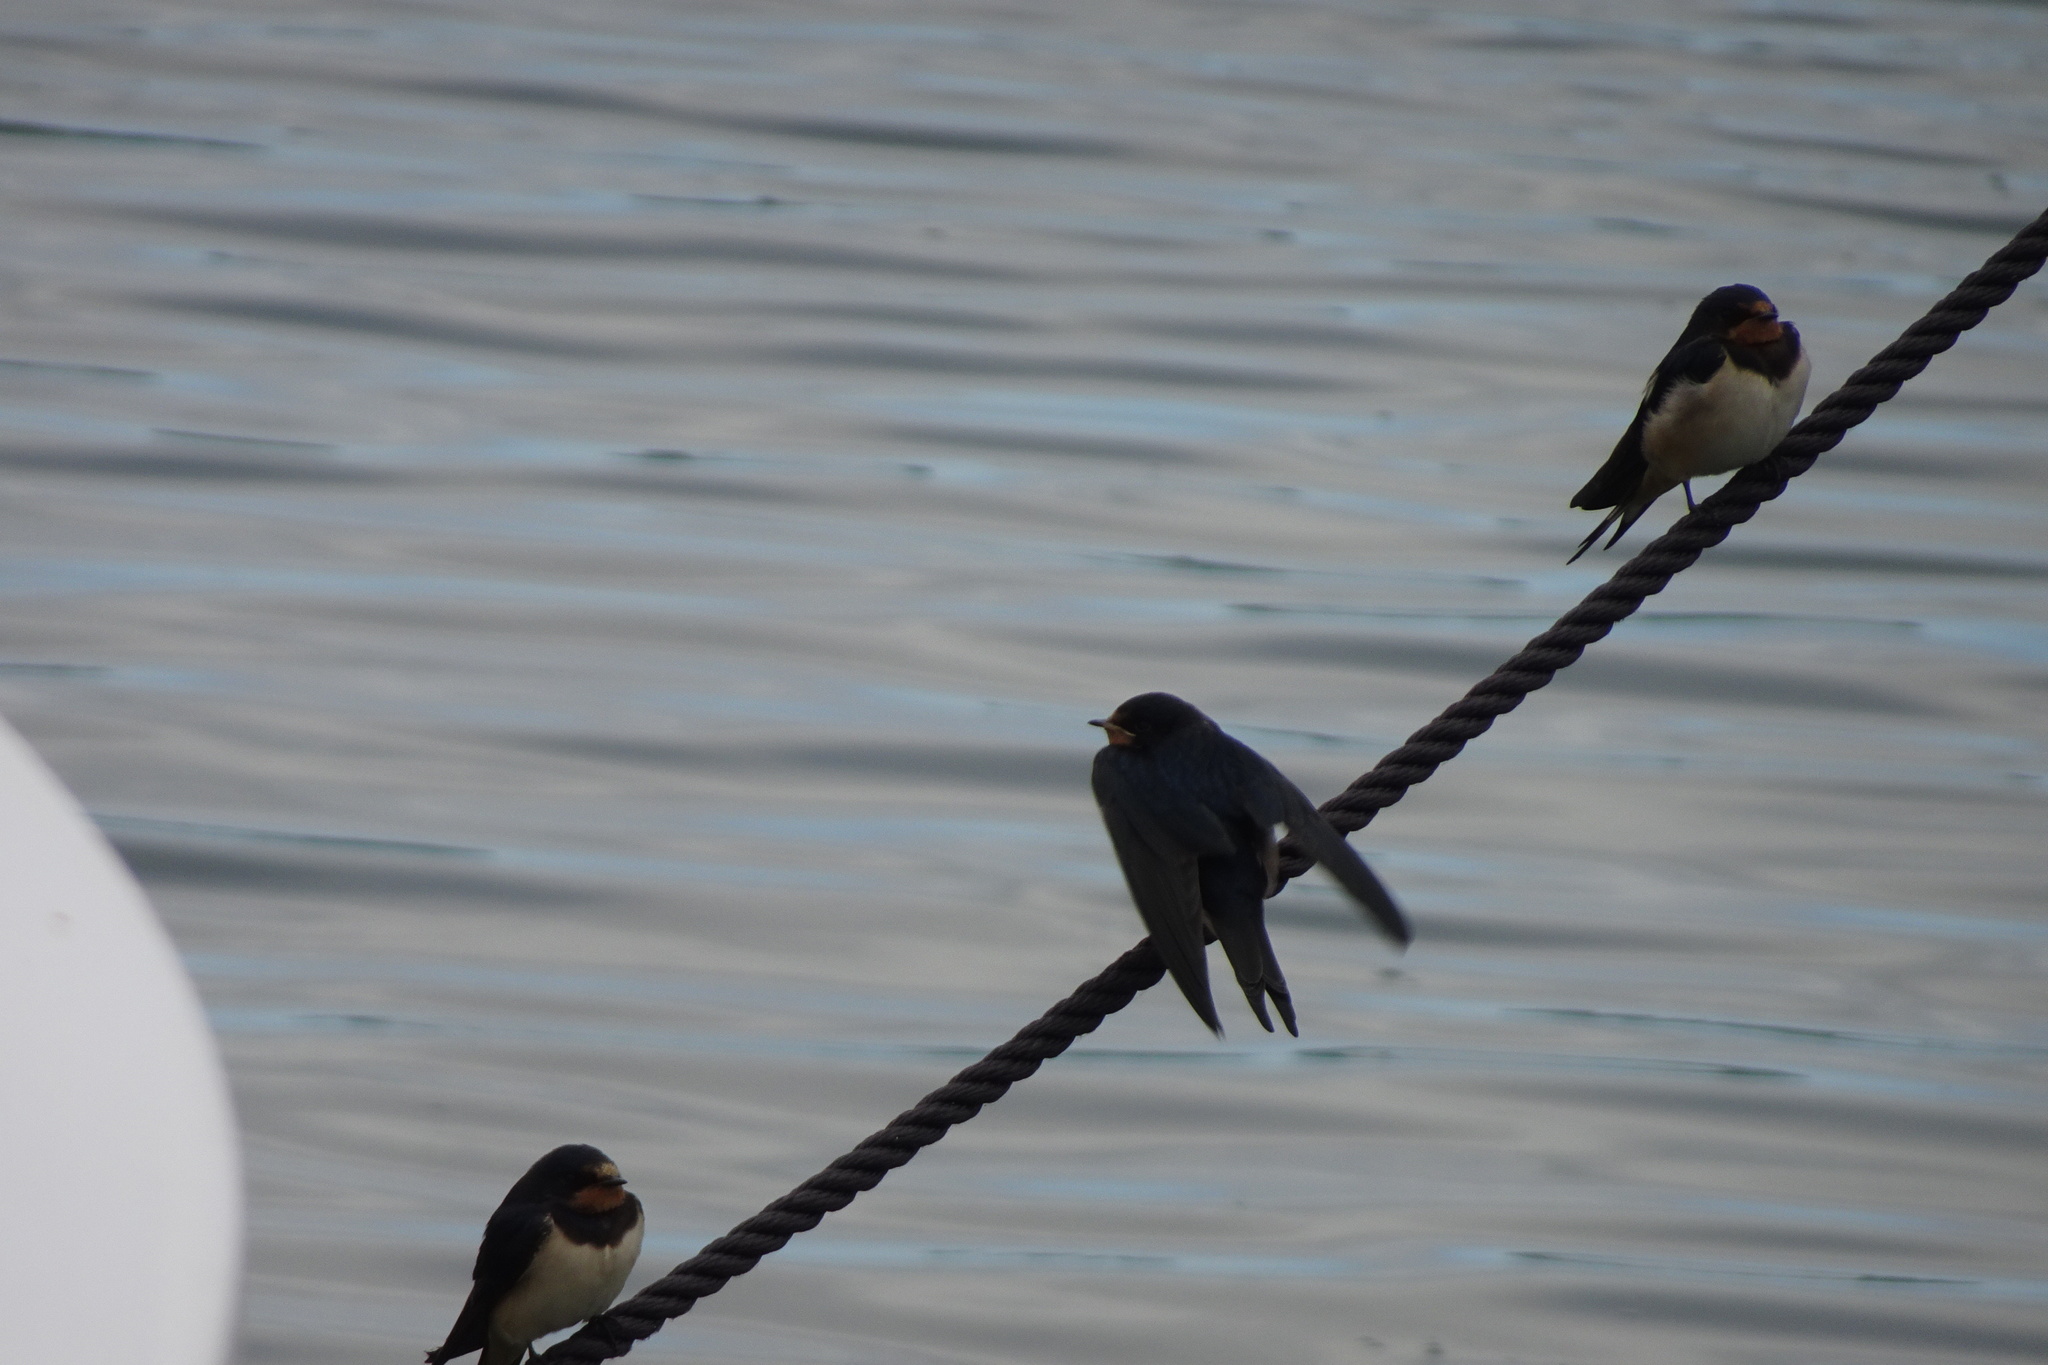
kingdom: Animalia
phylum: Chordata
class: Aves
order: Passeriformes
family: Hirundinidae
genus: Hirundo
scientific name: Hirundo rustica
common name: Barn swallow
